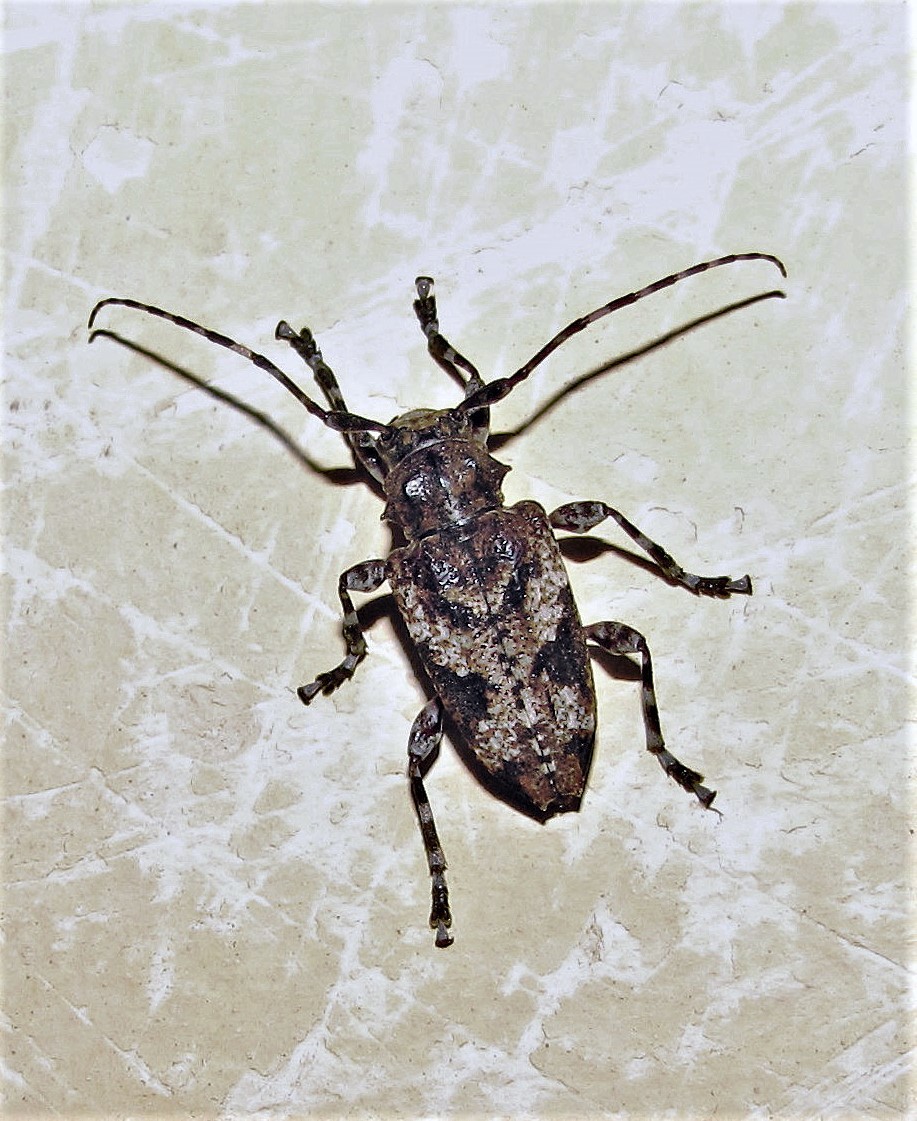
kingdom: Animalia
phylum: Arthropoda
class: Insecta
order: Coleoptera
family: Cerambycidae
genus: Psapharochrus
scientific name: Psapharochrus jaspideus
